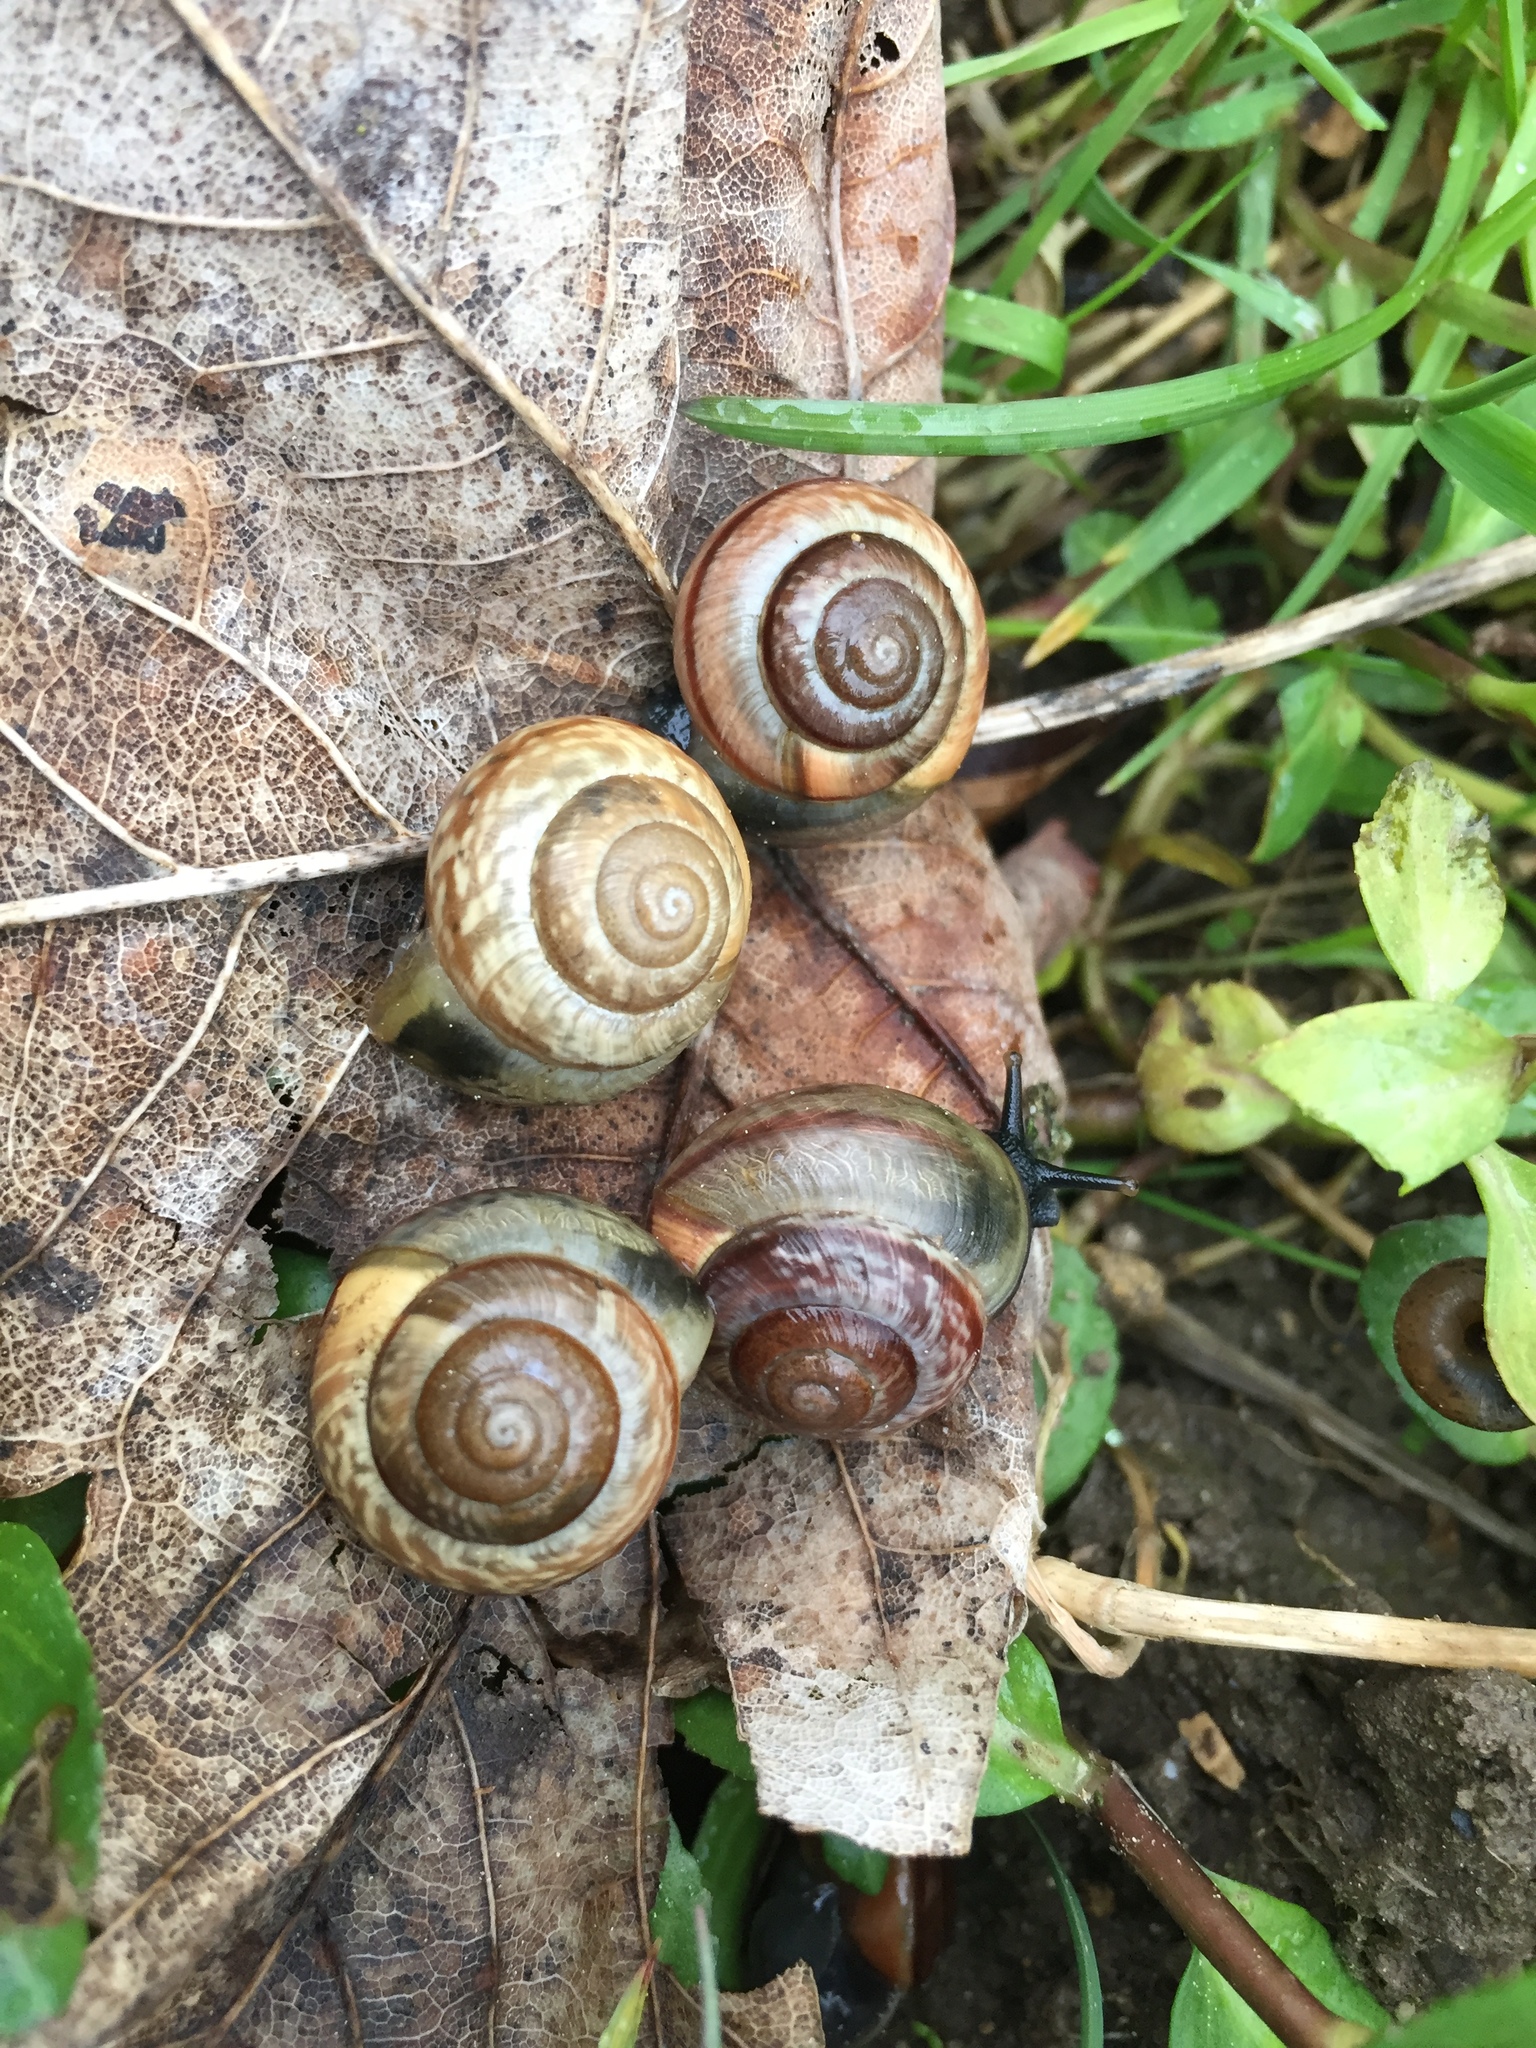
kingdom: Animalia
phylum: Mollusca
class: Gastropoda
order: Stylommatophora
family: Helicidae
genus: Arianta
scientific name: Arianta arbustorum
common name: Copse snail
